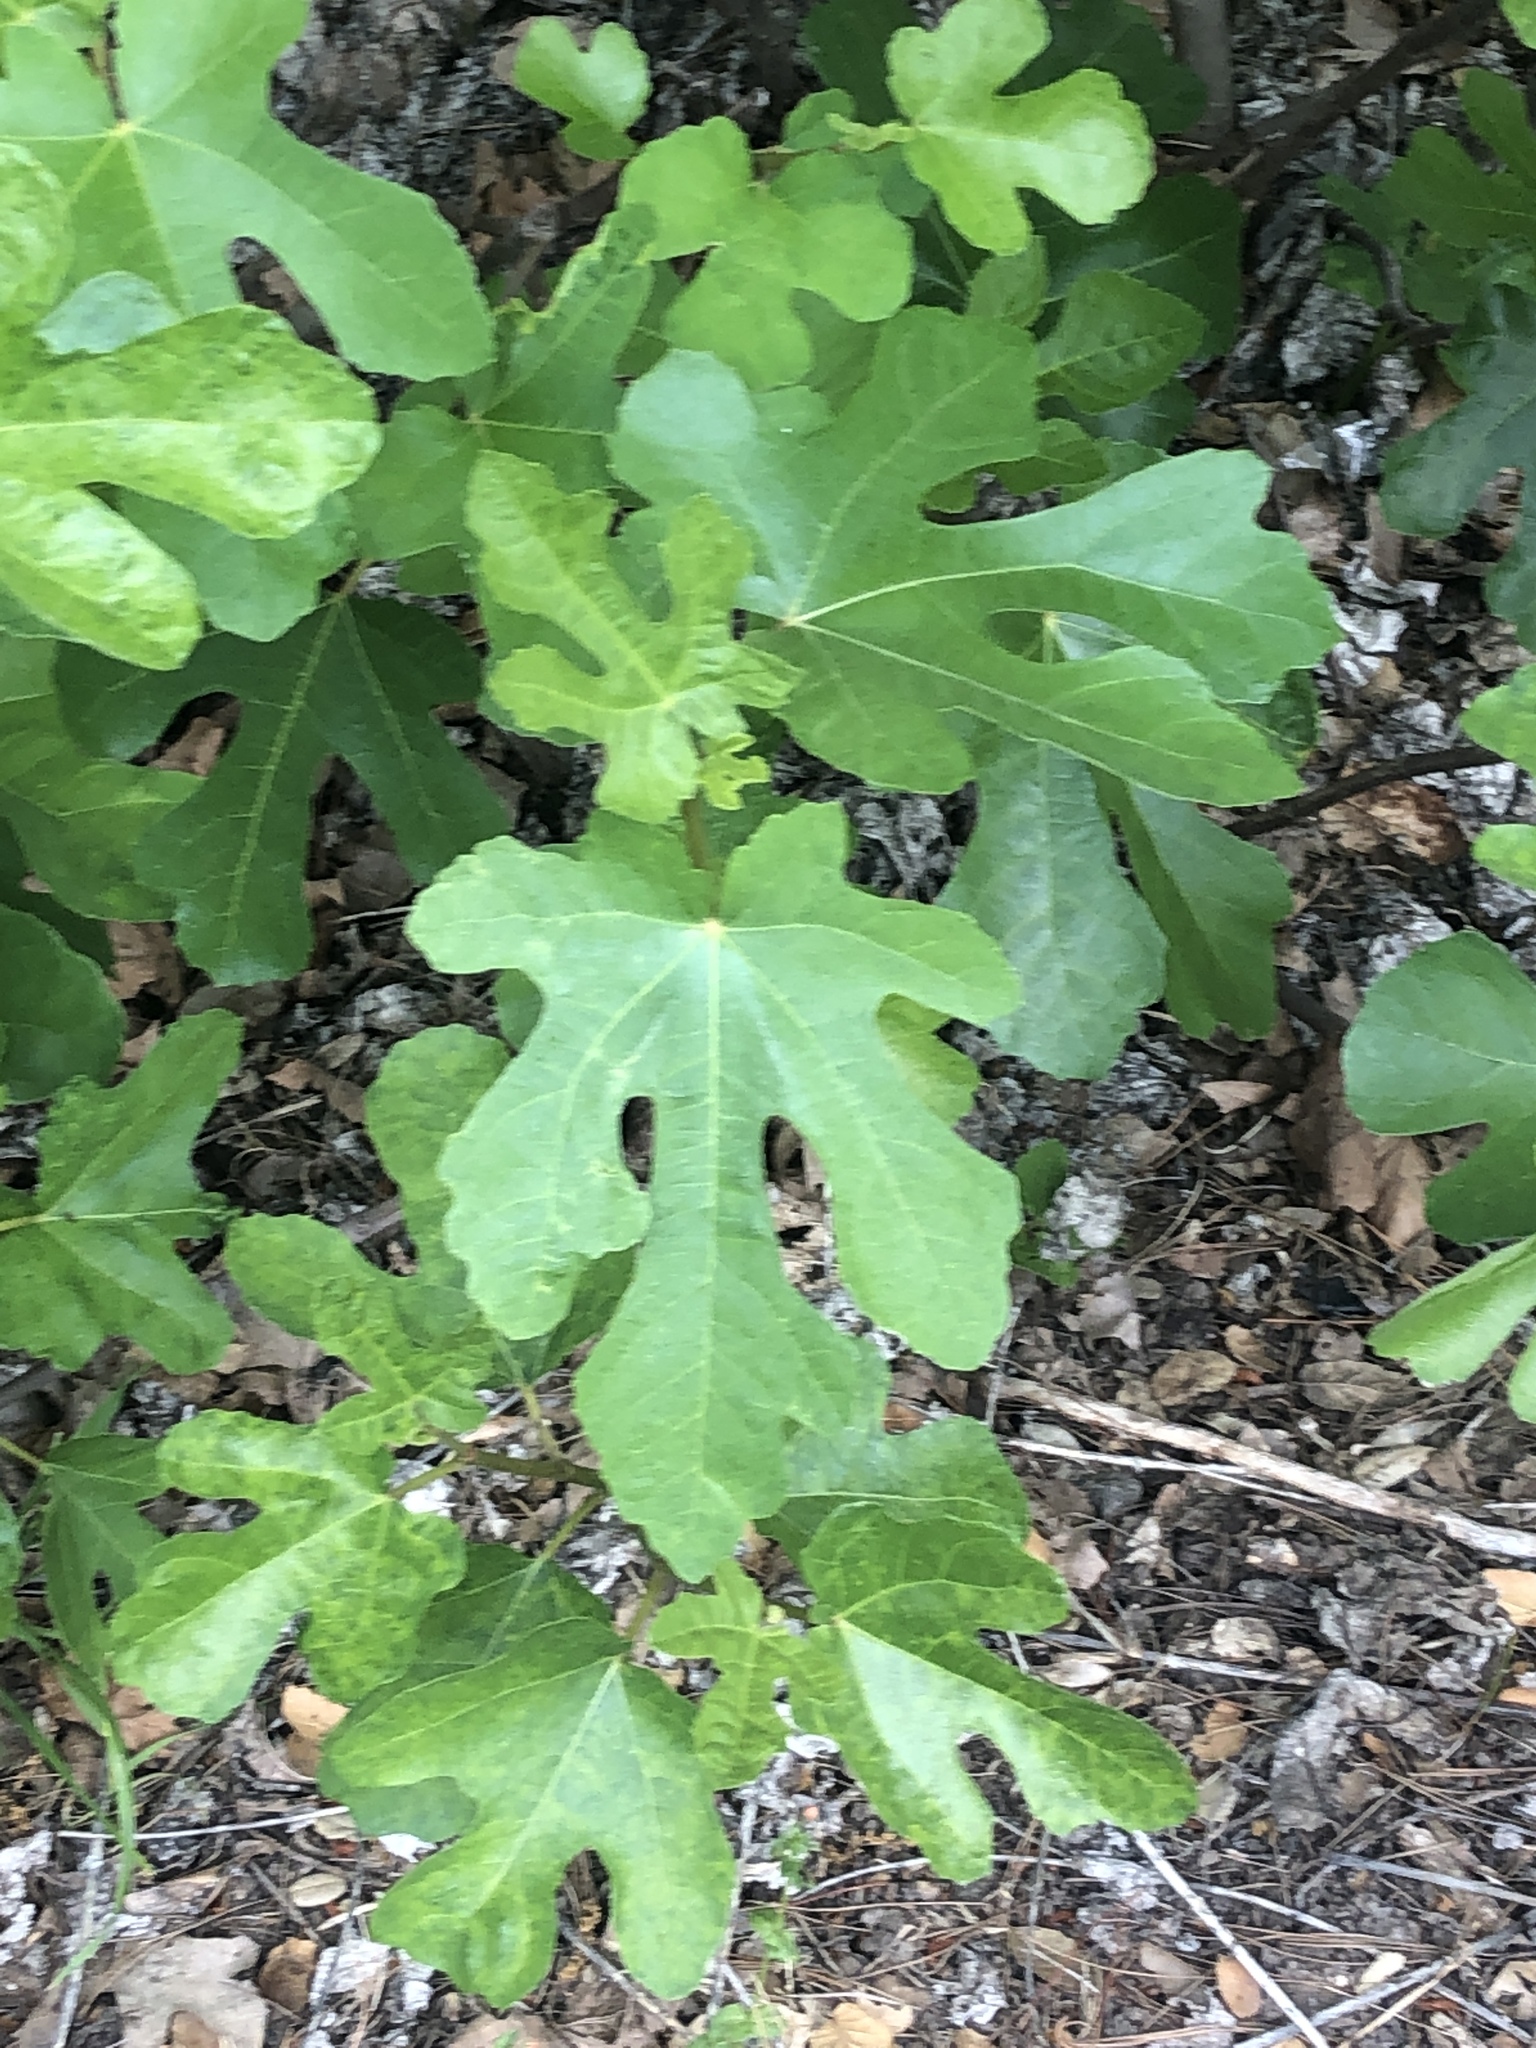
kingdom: Plantae
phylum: Tracheophyta
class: Magnoliopsida
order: Rosales
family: Moraceae
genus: Ficus
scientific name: Ficus carica
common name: Fig
